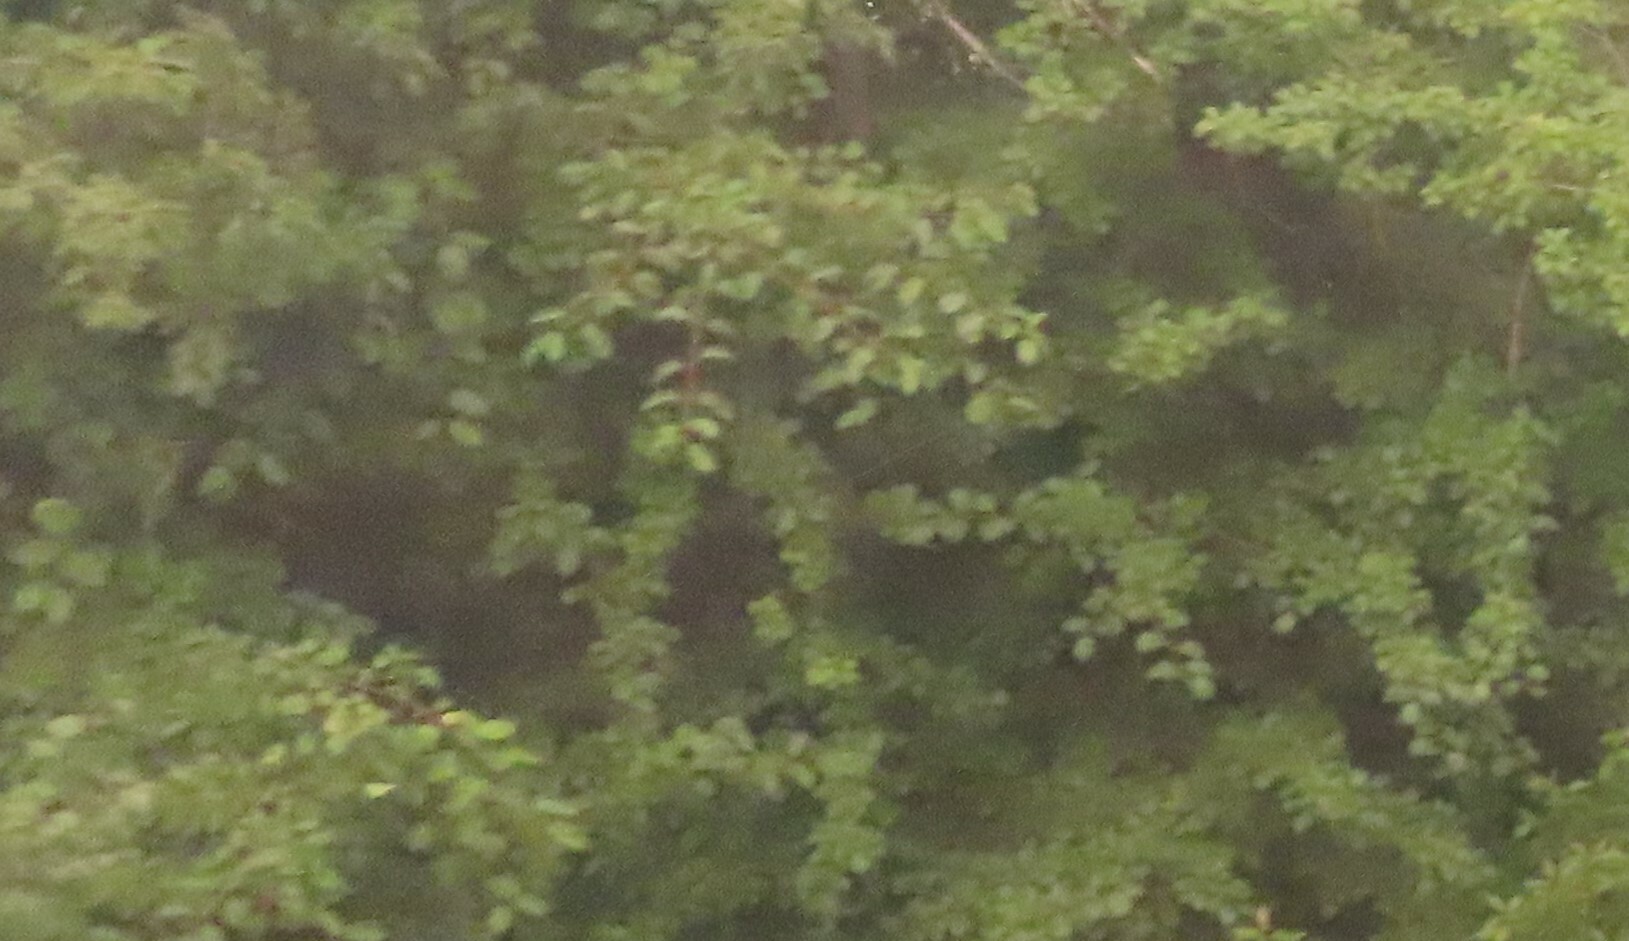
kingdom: Plantae
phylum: Tracheophyta
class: Magnoliopsida
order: Rosales
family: Rhamnaceae
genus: Rhamnus
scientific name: Rhamnus cathartica
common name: Common buckthorn
